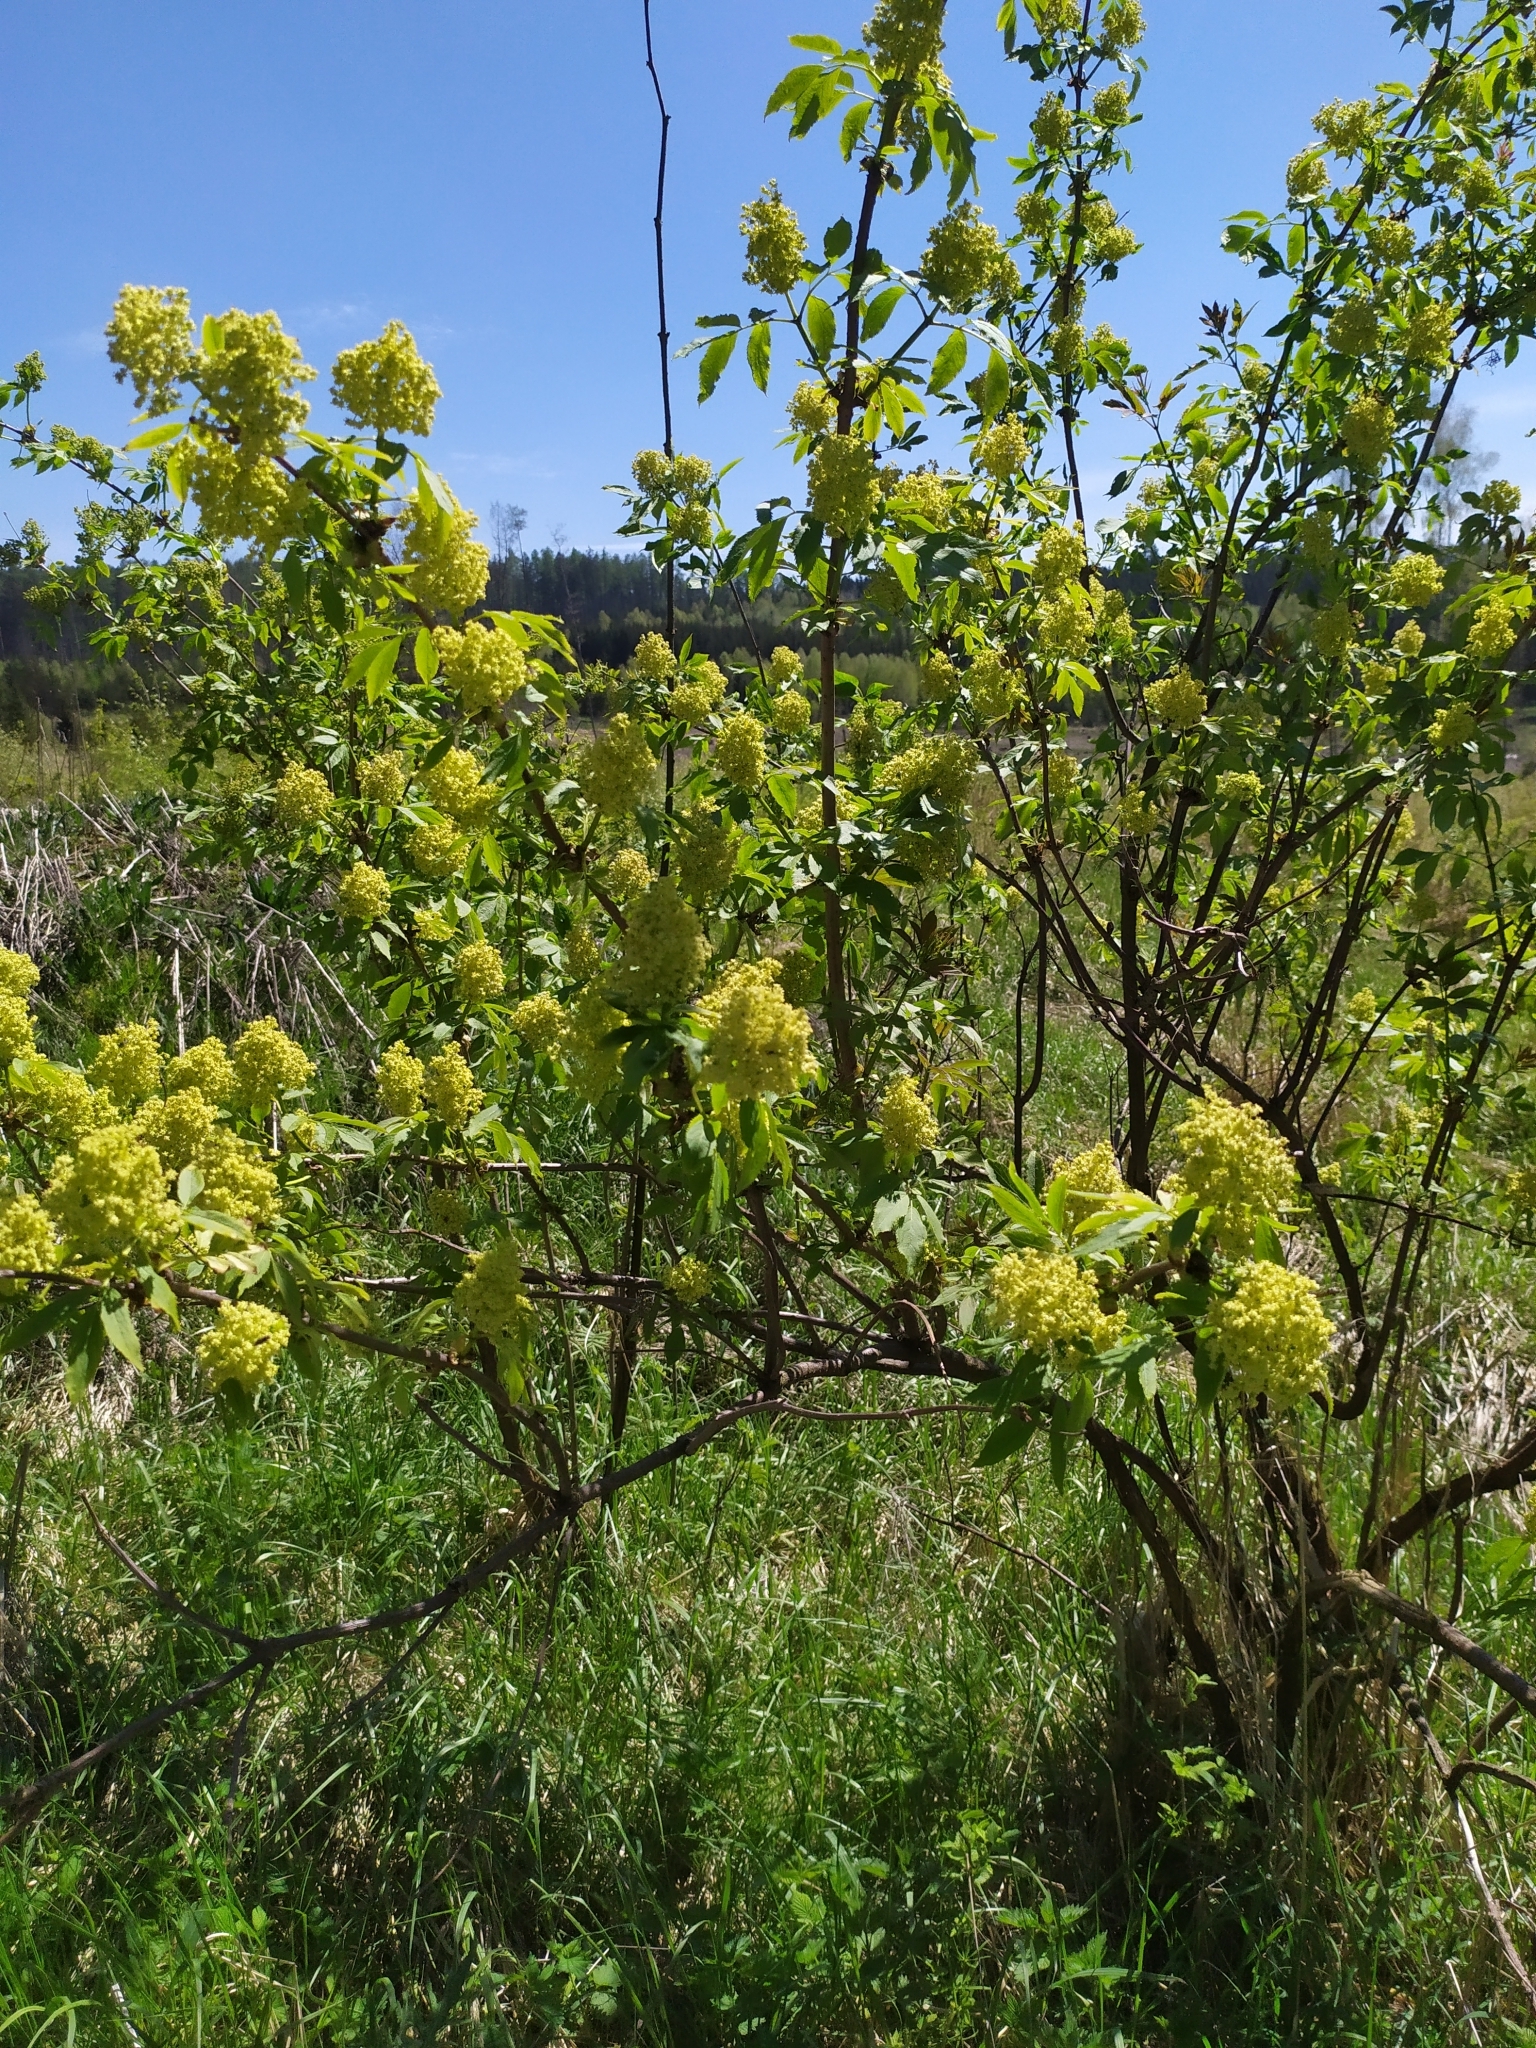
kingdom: Plantae
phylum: Tracheophyta
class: Magnoliopsida
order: Dipsacales
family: Viburnaceae
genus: Sambucus
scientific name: Sambucus racemosa
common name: Red-berried elder
